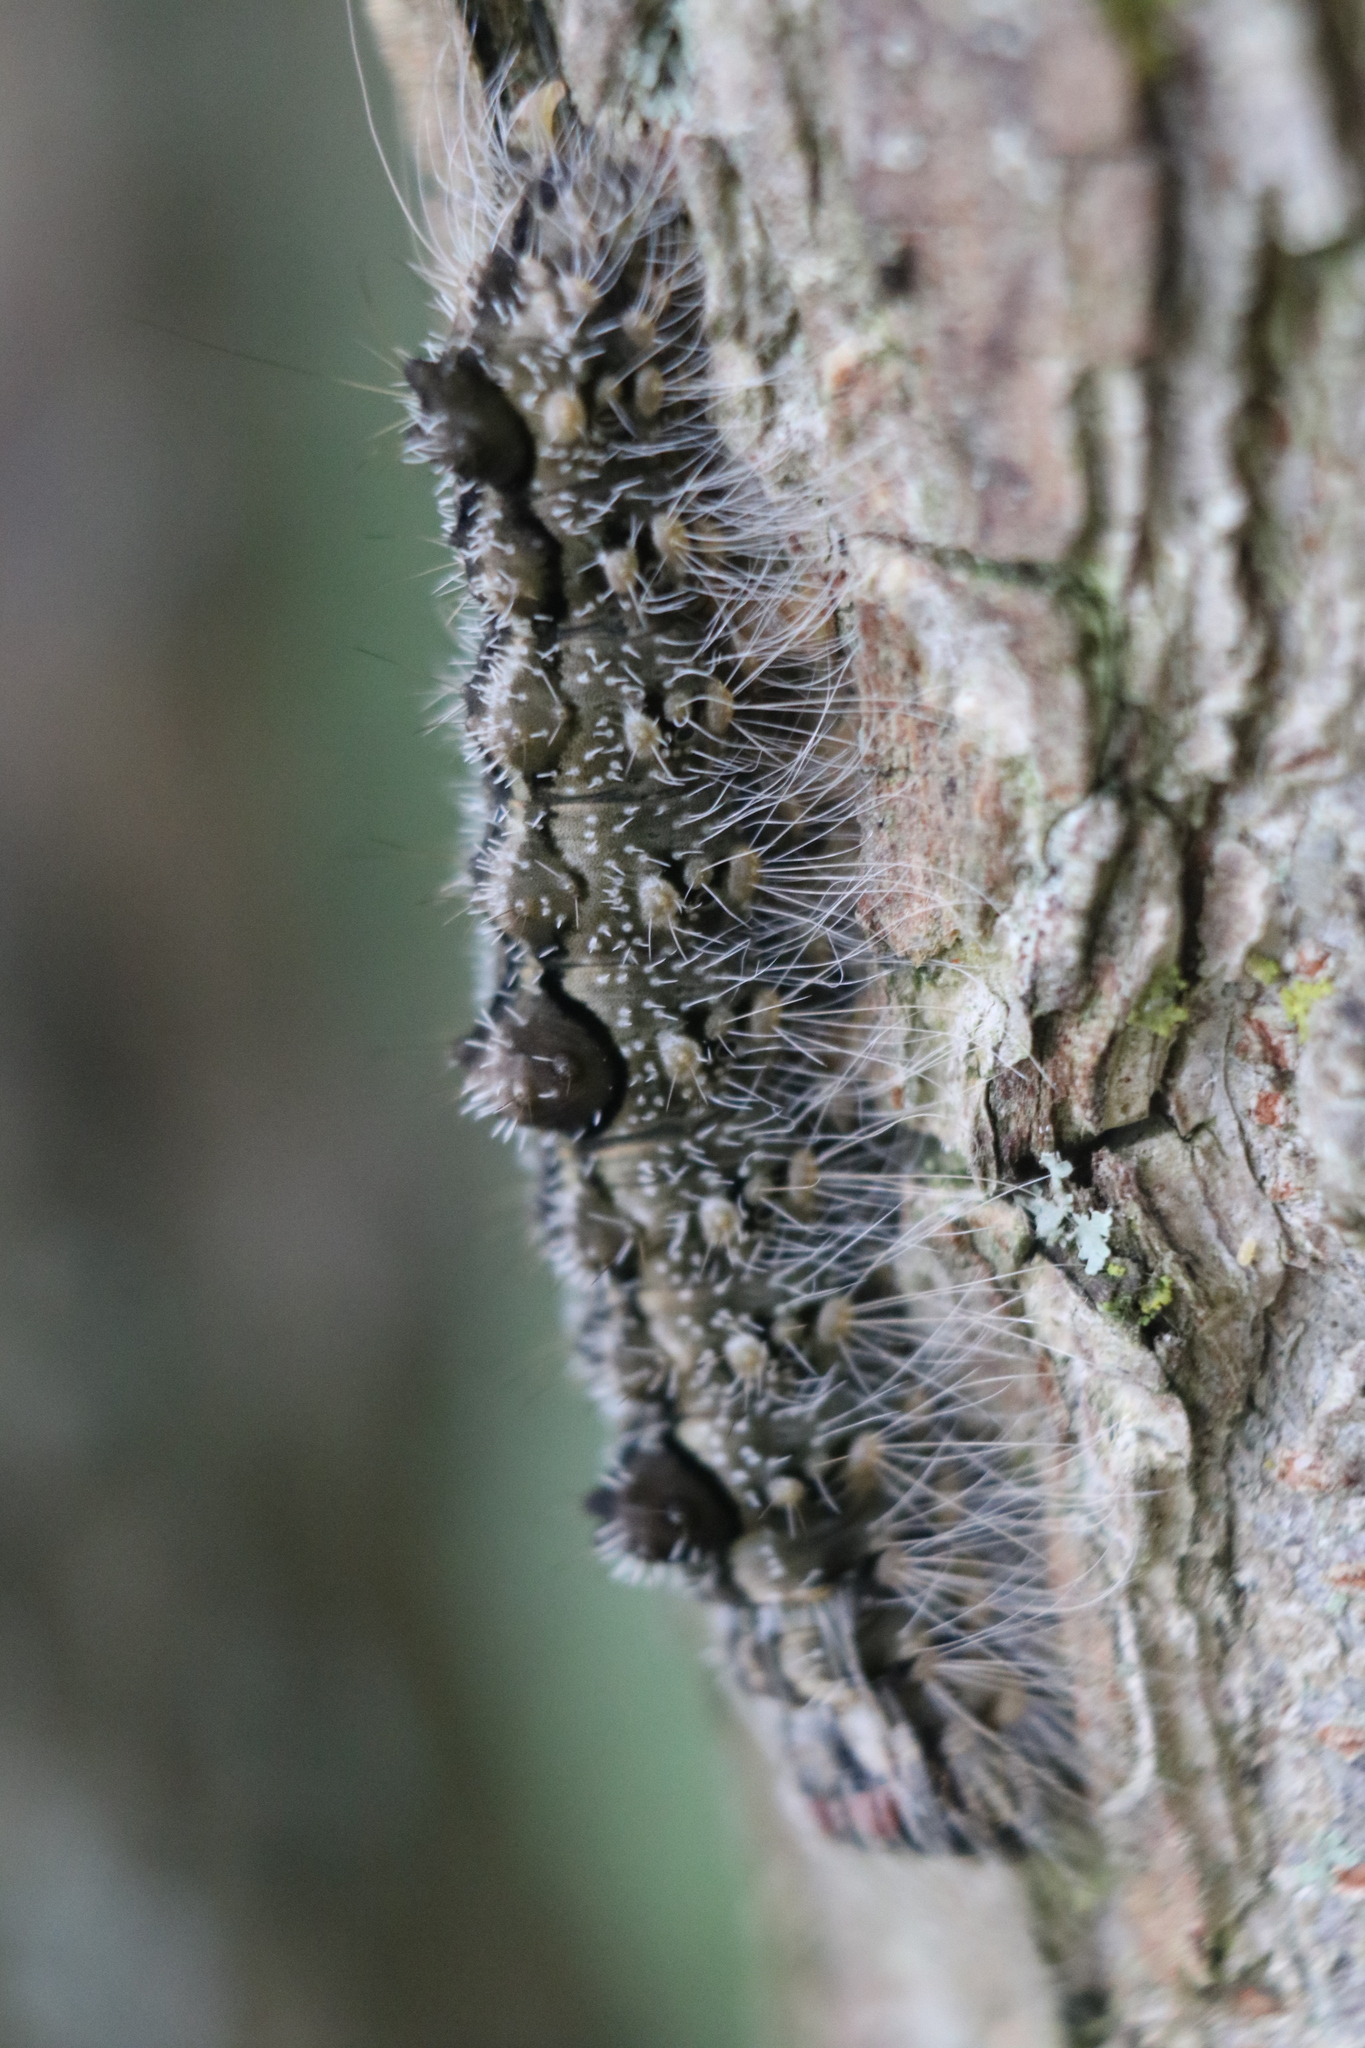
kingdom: Animalia
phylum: Arthropoda
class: Insecta
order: Lepidoptera
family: Noctuidae
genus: Acronicta
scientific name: Acronicta morula
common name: Ochre dagger
